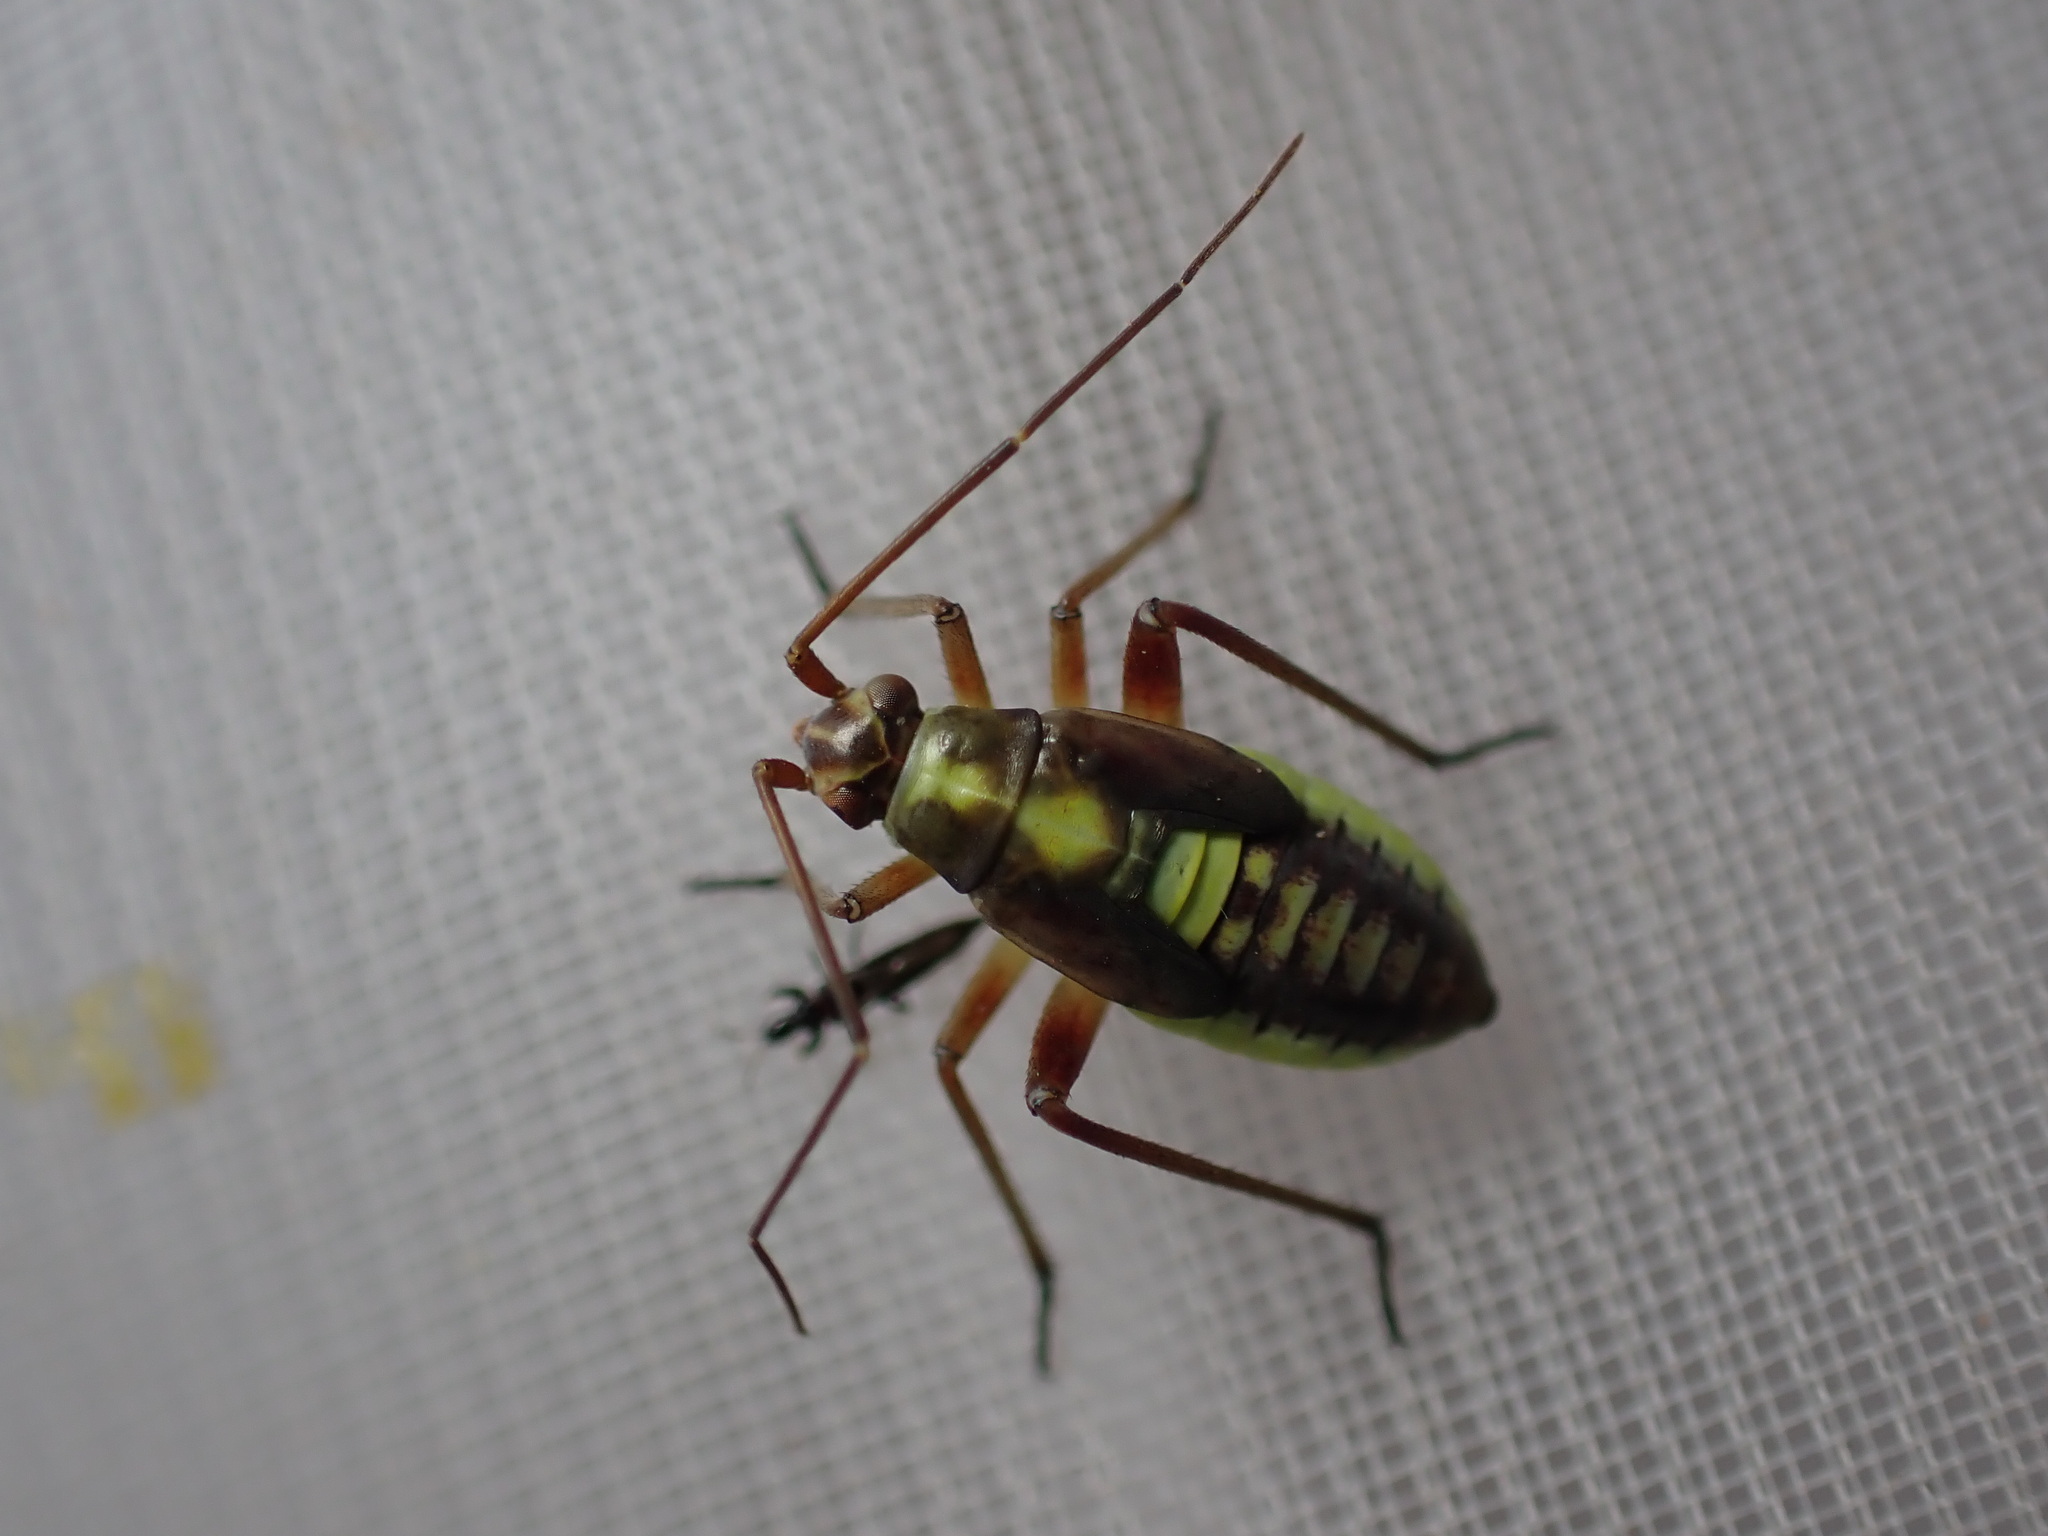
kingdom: Animalia
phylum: Arthropoda
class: Insecta
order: Hemiptera
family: Miridae
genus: Calocoris
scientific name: Calocoris roseomaculatus
